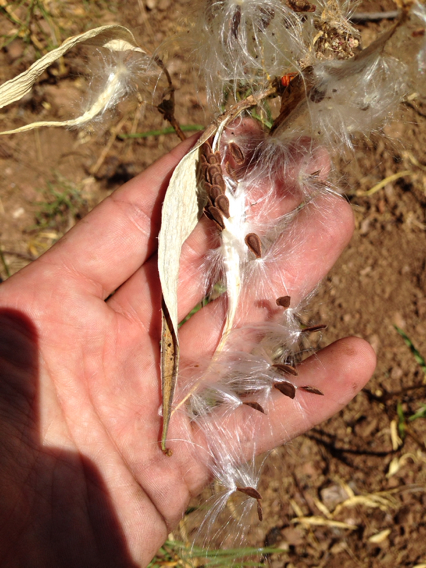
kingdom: Plantae
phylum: Tracheophyta
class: Magnoliopsida
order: Gentianales
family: Apocynaceae
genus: Asclepias
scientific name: Asclepias fascicularis
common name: Mexican milkweed
